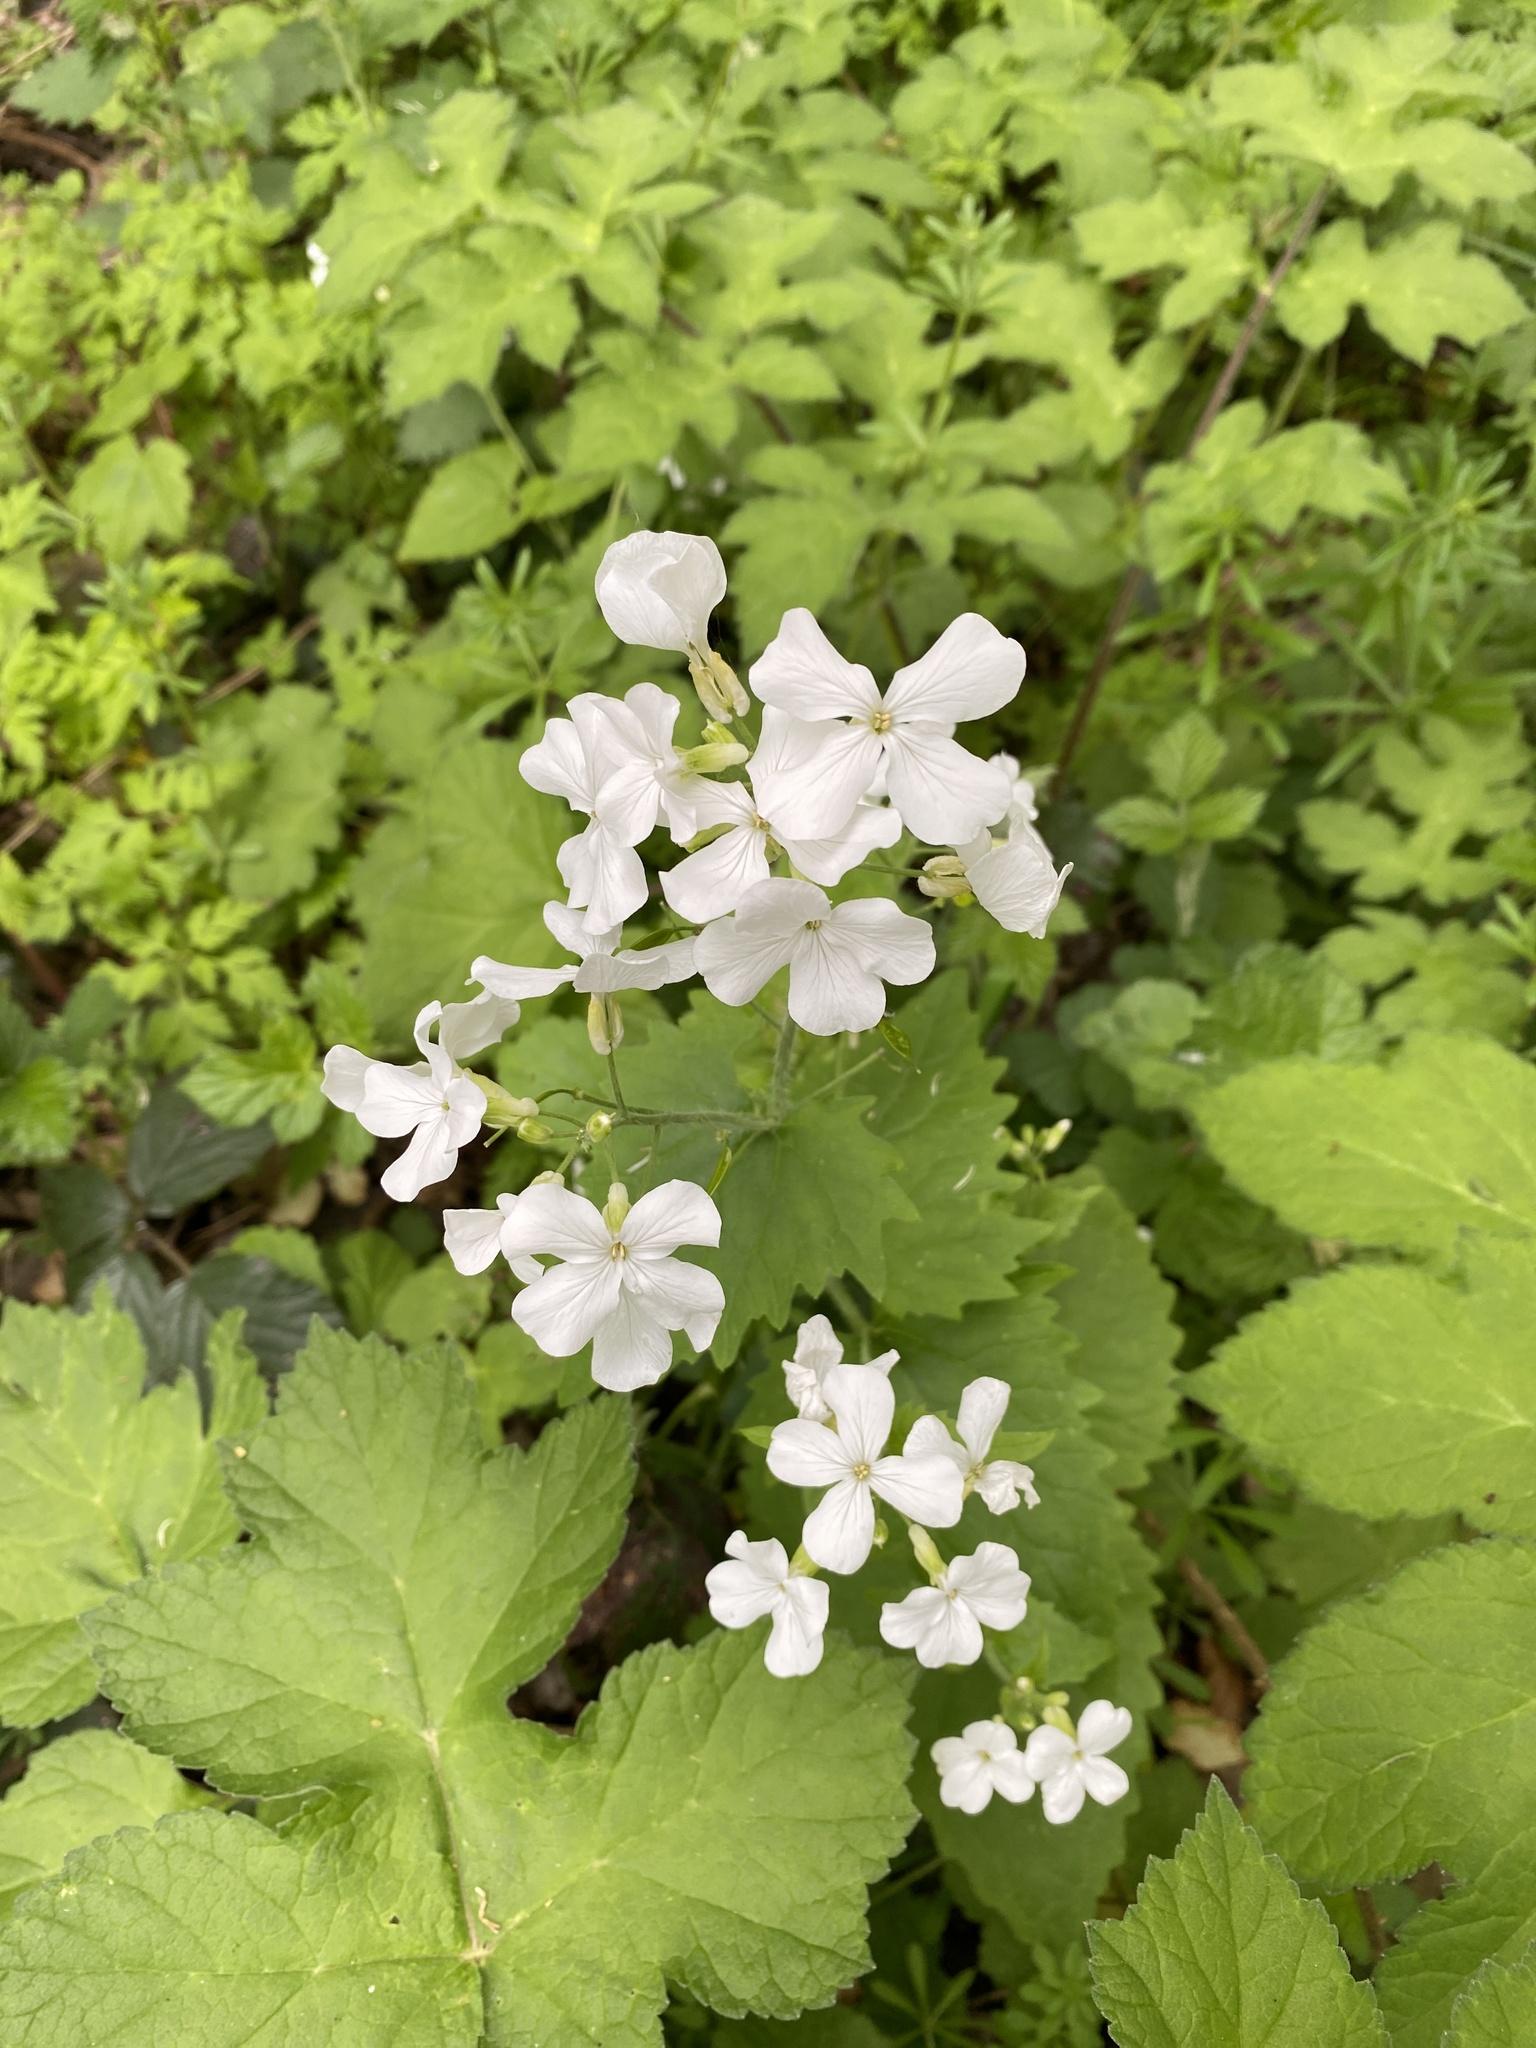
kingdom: Plantae
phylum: Tracheophyta
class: Magnoliopsida
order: Brassicales
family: Brassicaceae
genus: Lunaria
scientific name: Lunaria annua
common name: Honesty
